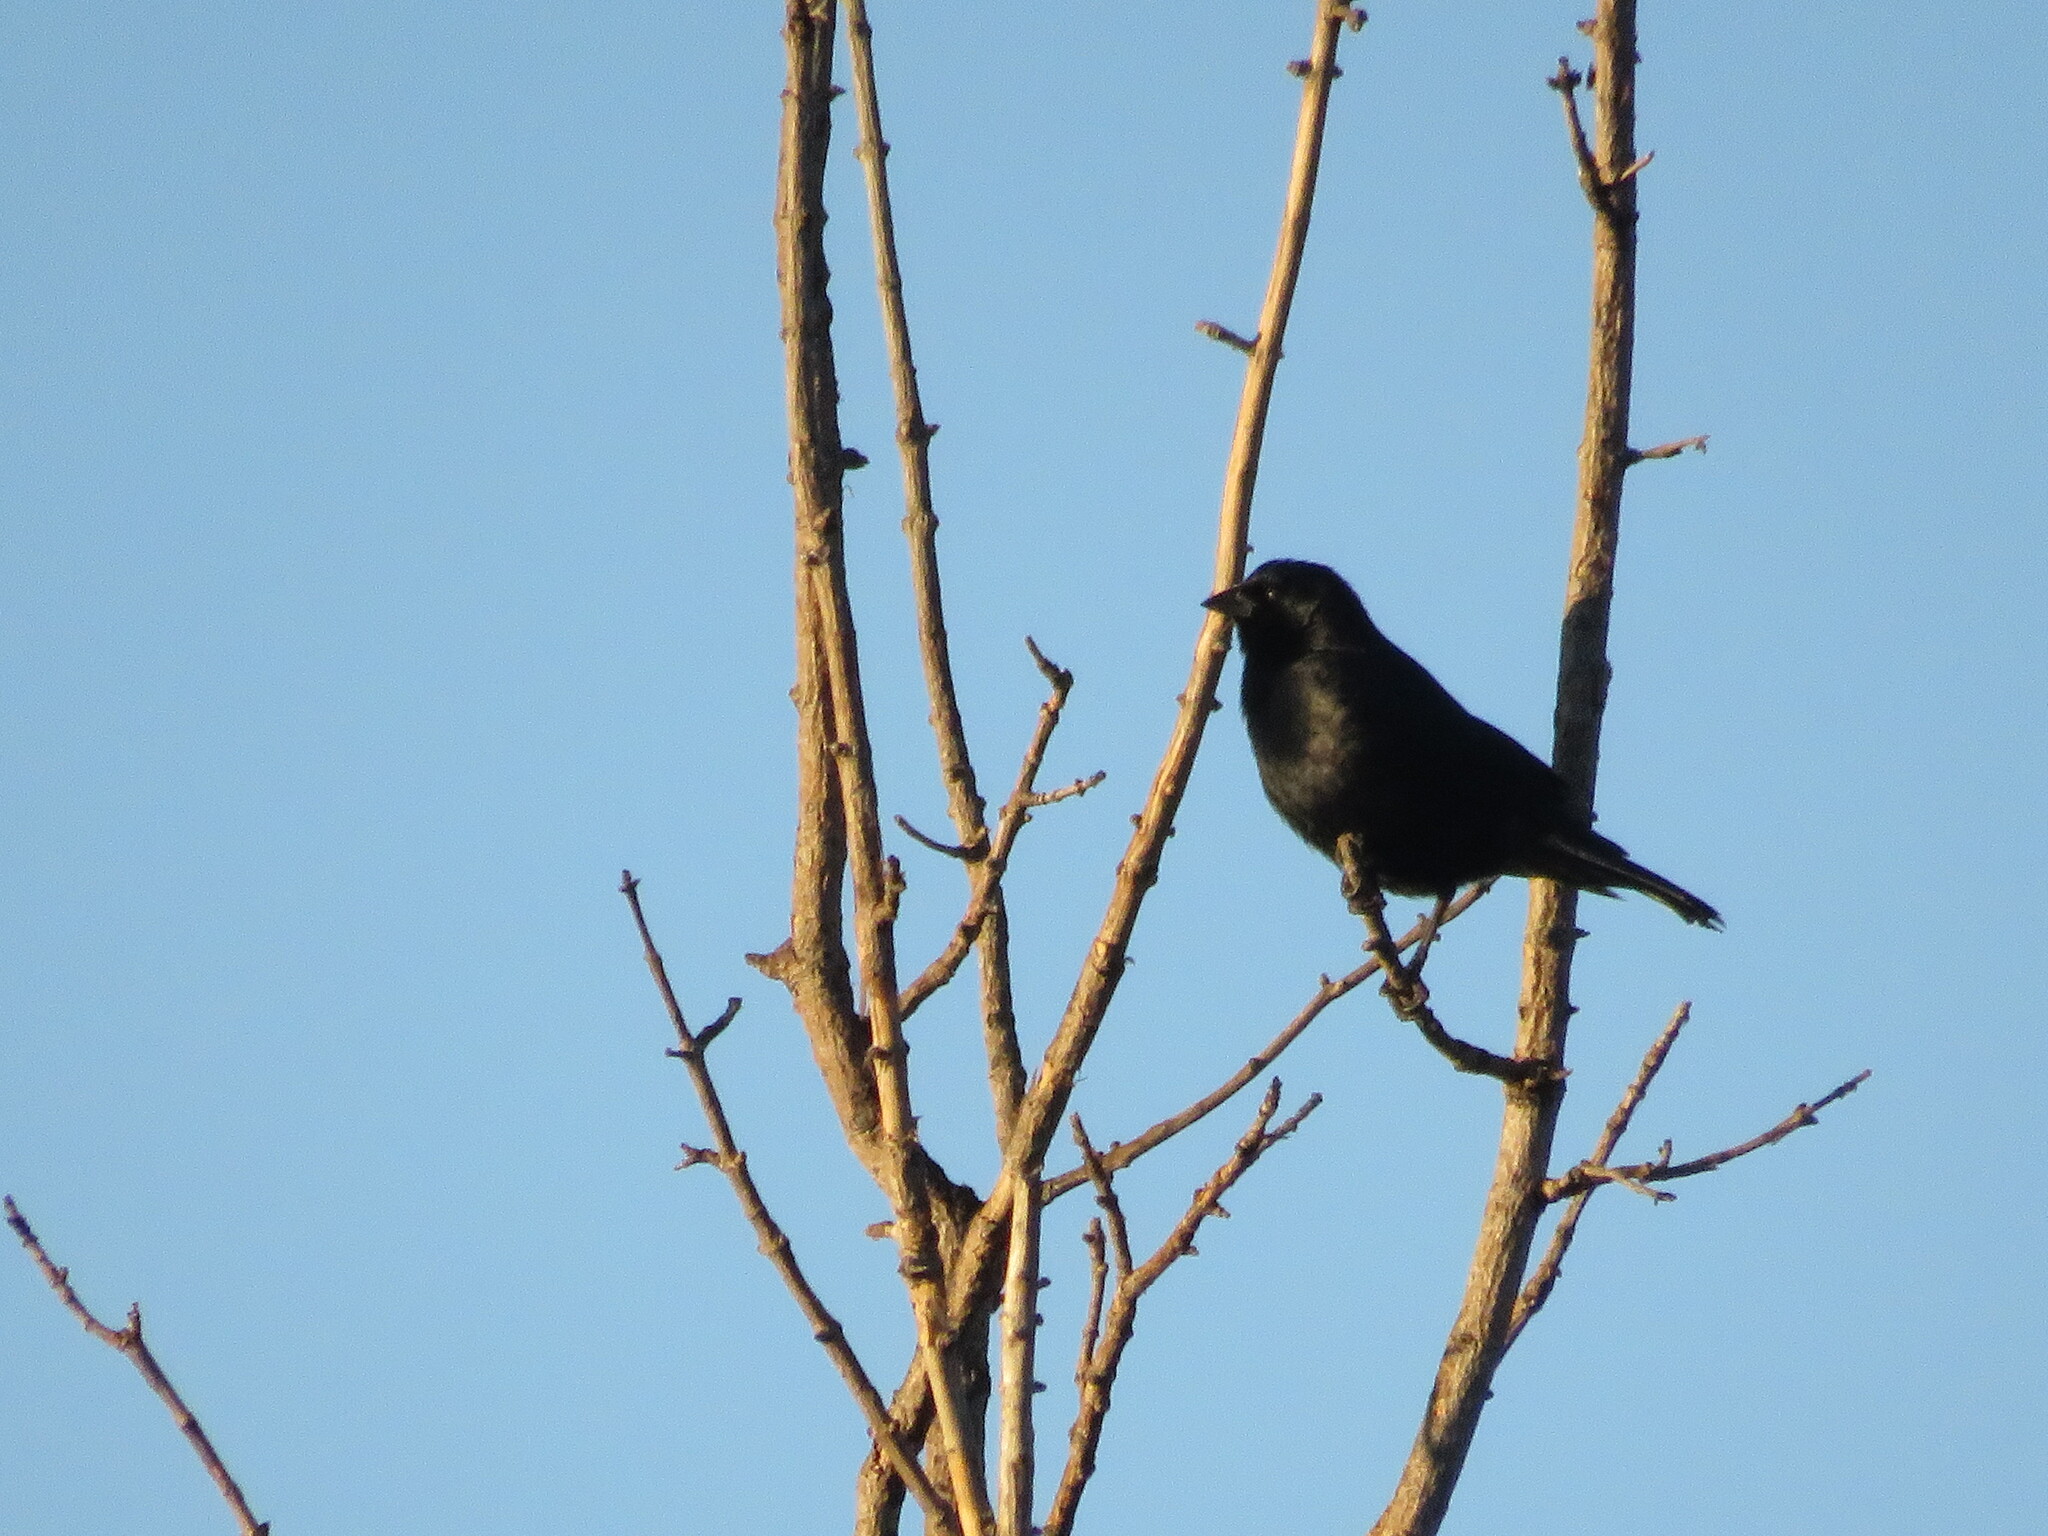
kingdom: Animalia
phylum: Chordata
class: Aves
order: Passeriformes
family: Icteridae
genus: Molothrus
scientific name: Molothrus rufoaxillaris
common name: Screaming cowbird
